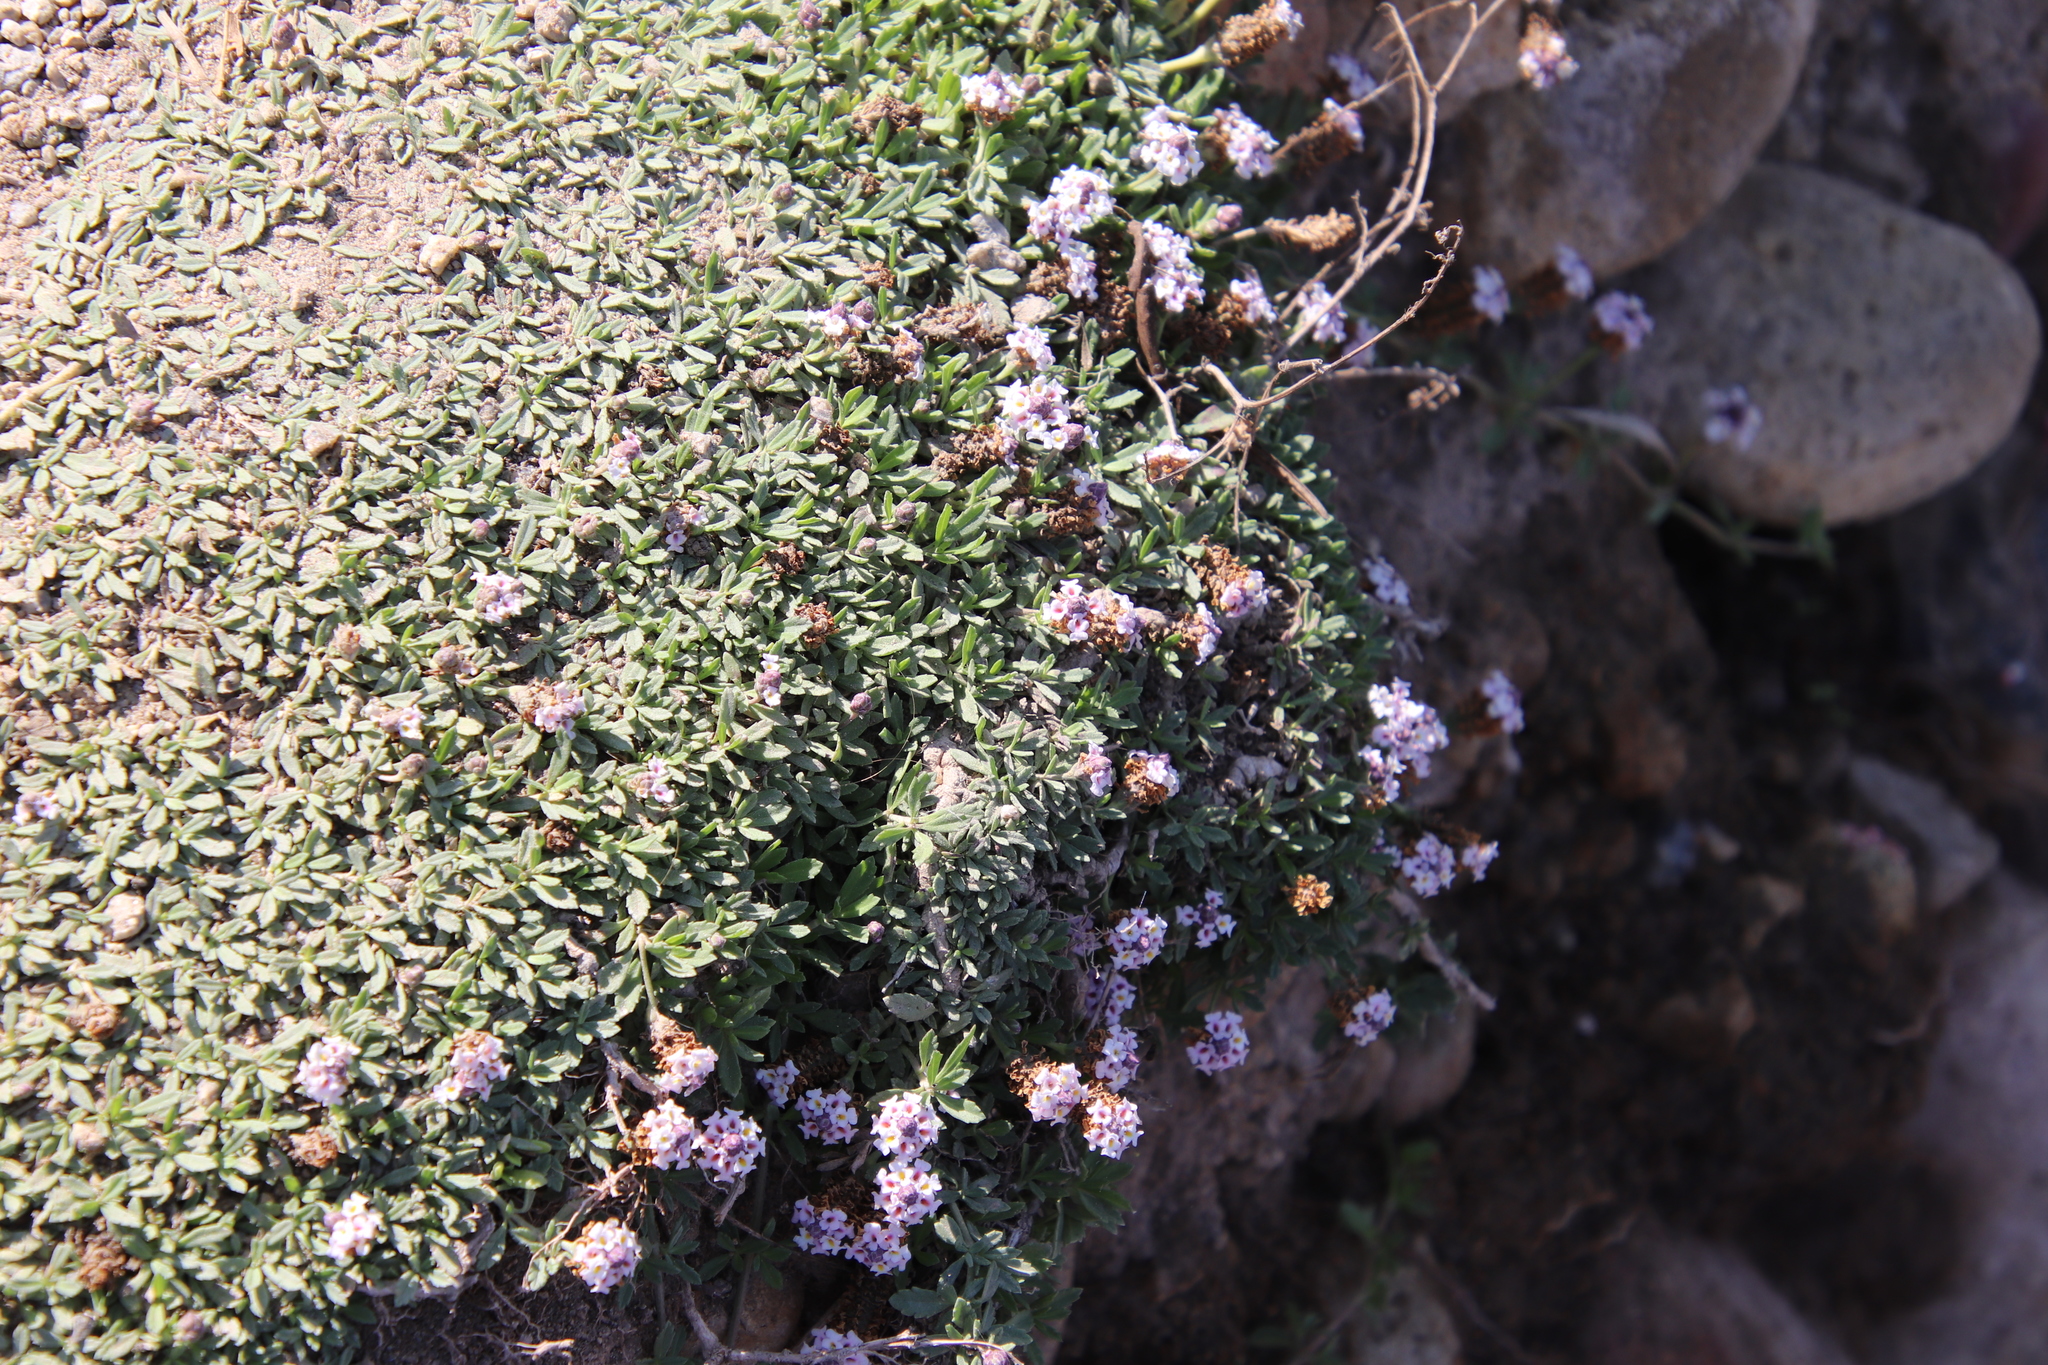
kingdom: Plantae
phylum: Tracheophyta
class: Magnoliopsida
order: Lamiales
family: Verbenaceae
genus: Phyla
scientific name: Phyla nodiflora
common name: Frogfruit
